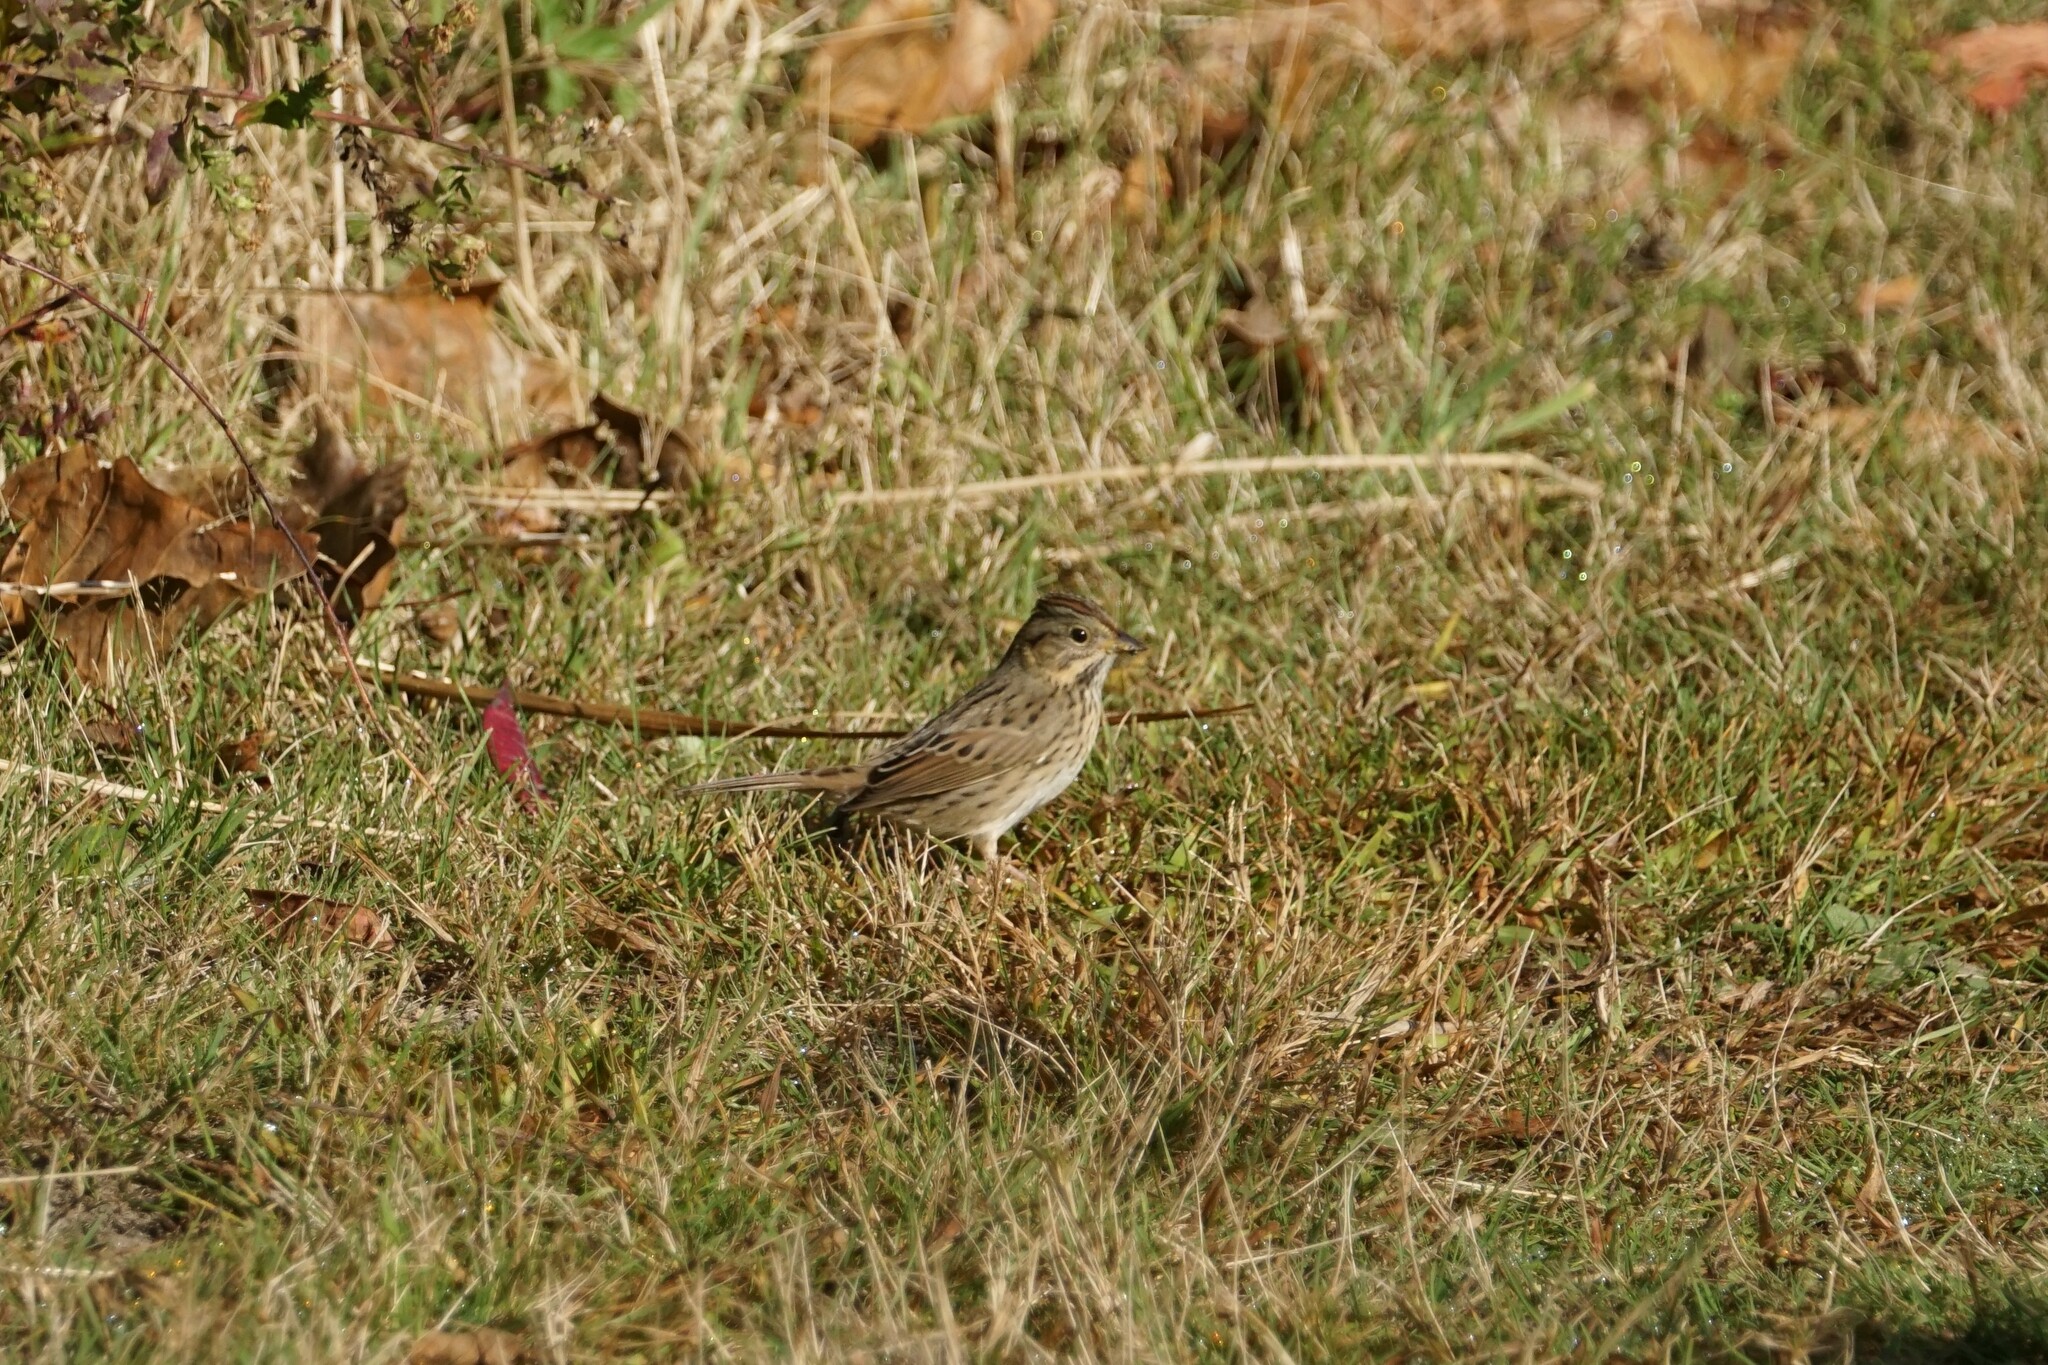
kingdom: Animalia
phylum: Chordata
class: Aves
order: Passeriformes
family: Passerellidae
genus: Melospiza
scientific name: Melospiza lincolnii
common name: Lincoln's sparrow
